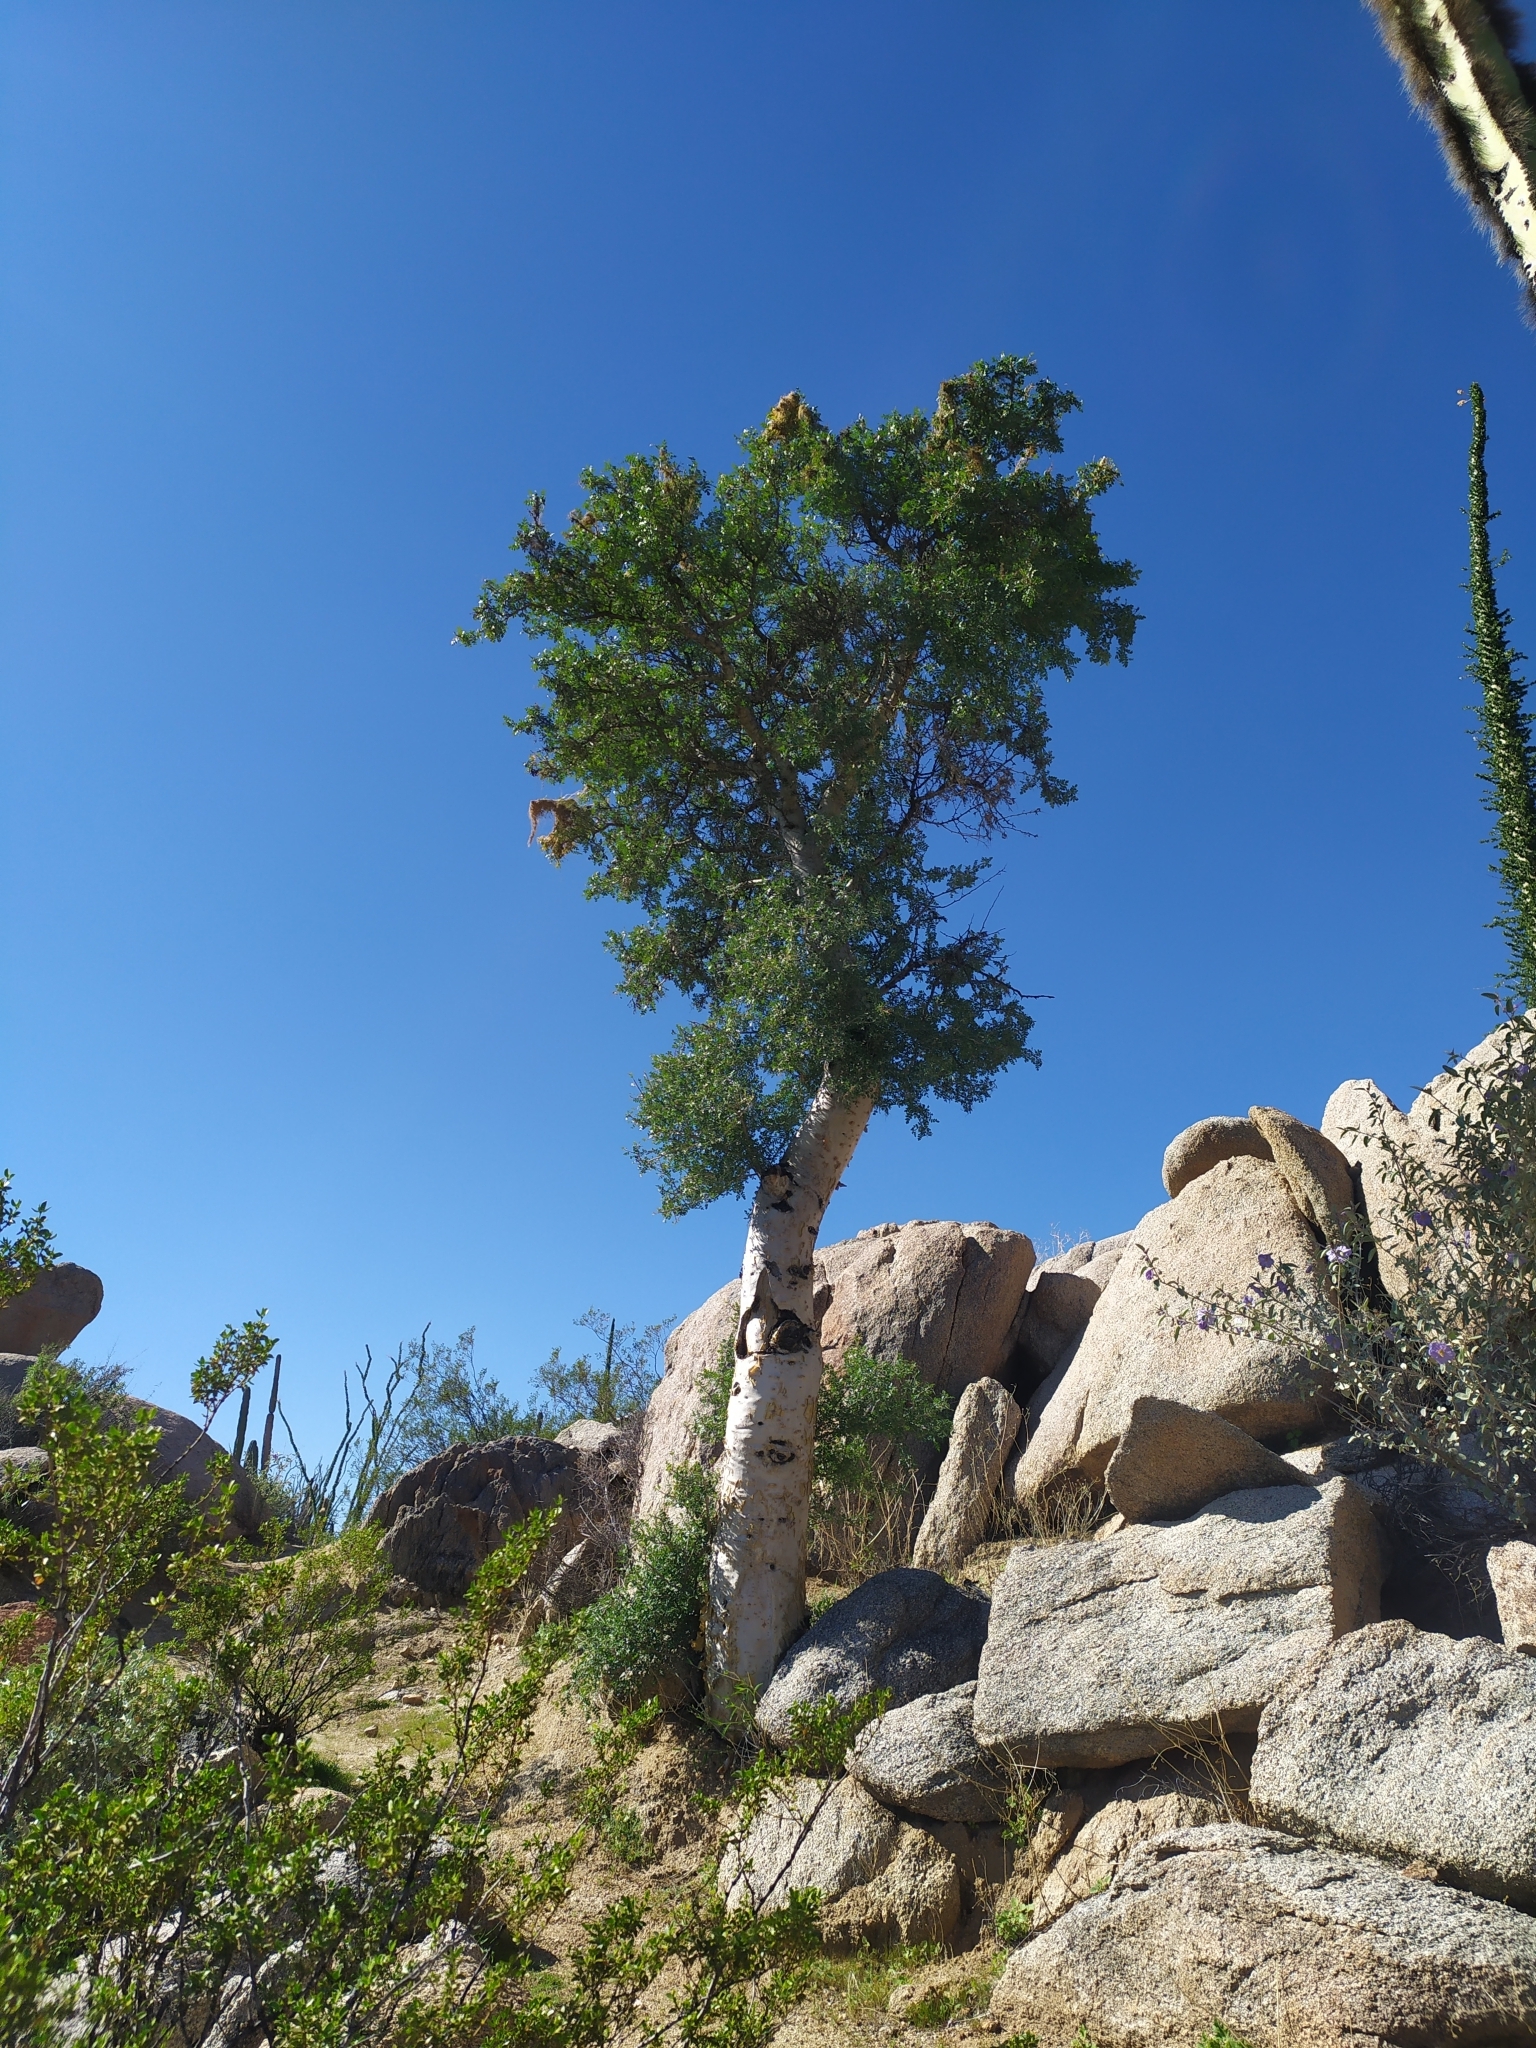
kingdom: Plantae
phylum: Tracheophyta
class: Magnoliopsida
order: Sapindales
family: Anacardiaceae
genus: Pachycormus
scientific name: Pachycormus discolor
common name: Succulent elephant trees
